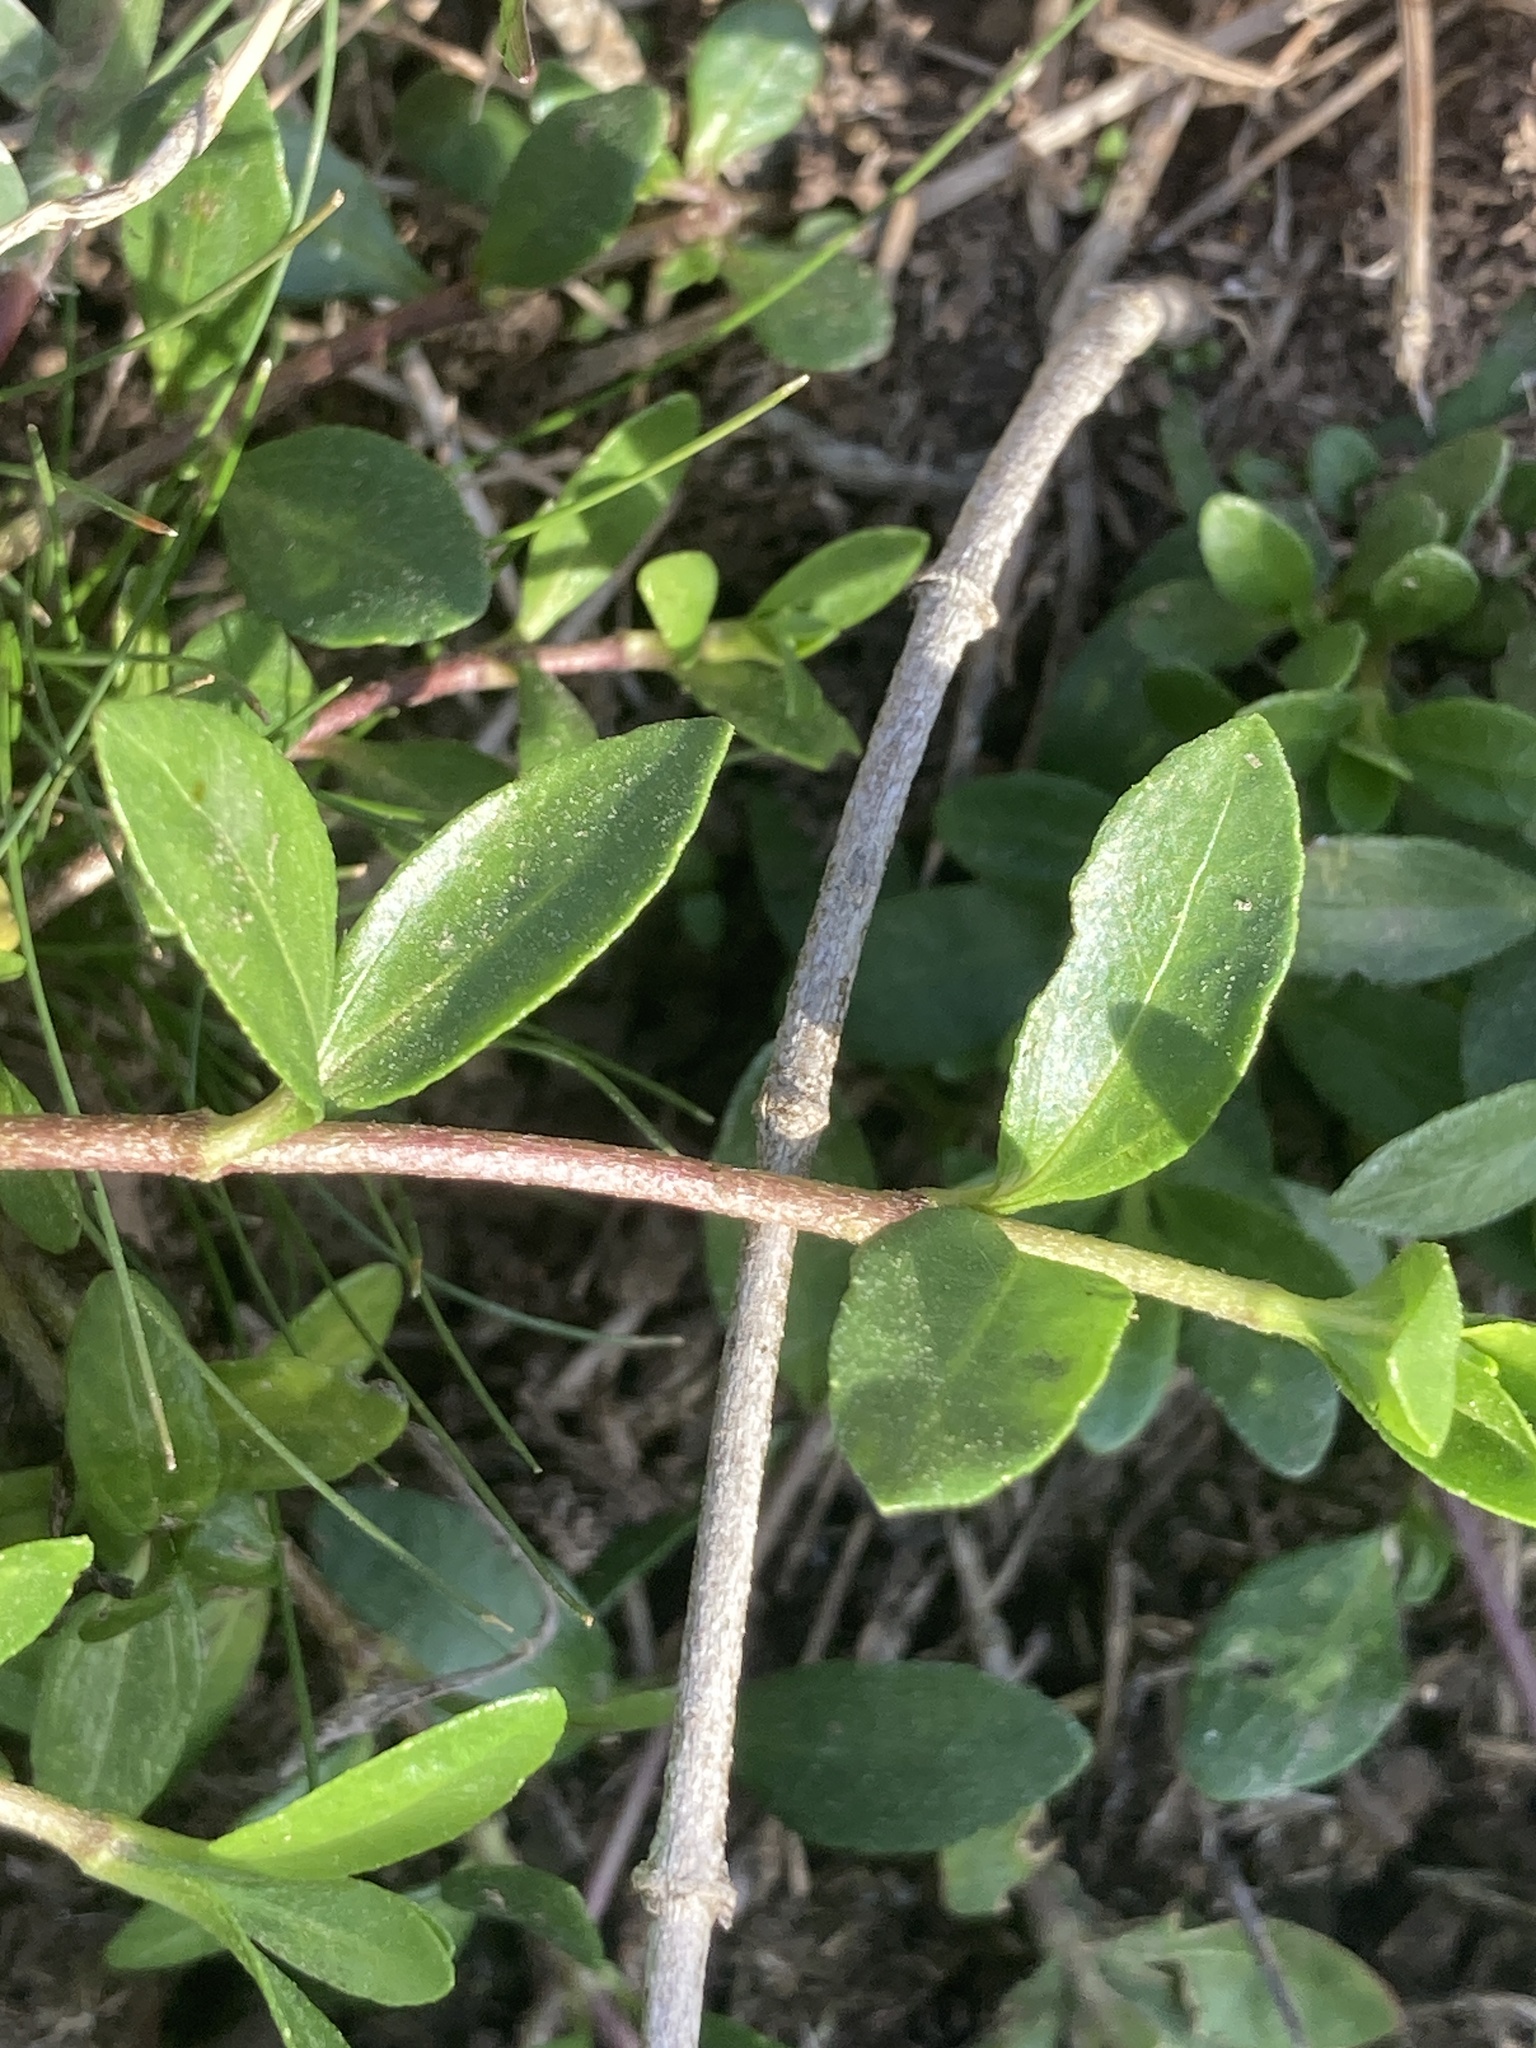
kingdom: Plantae
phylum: Tracheophyta
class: Magnoliopsida
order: Asterales
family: Asteraceae
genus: Eclipta
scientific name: Eclipta elliptica
